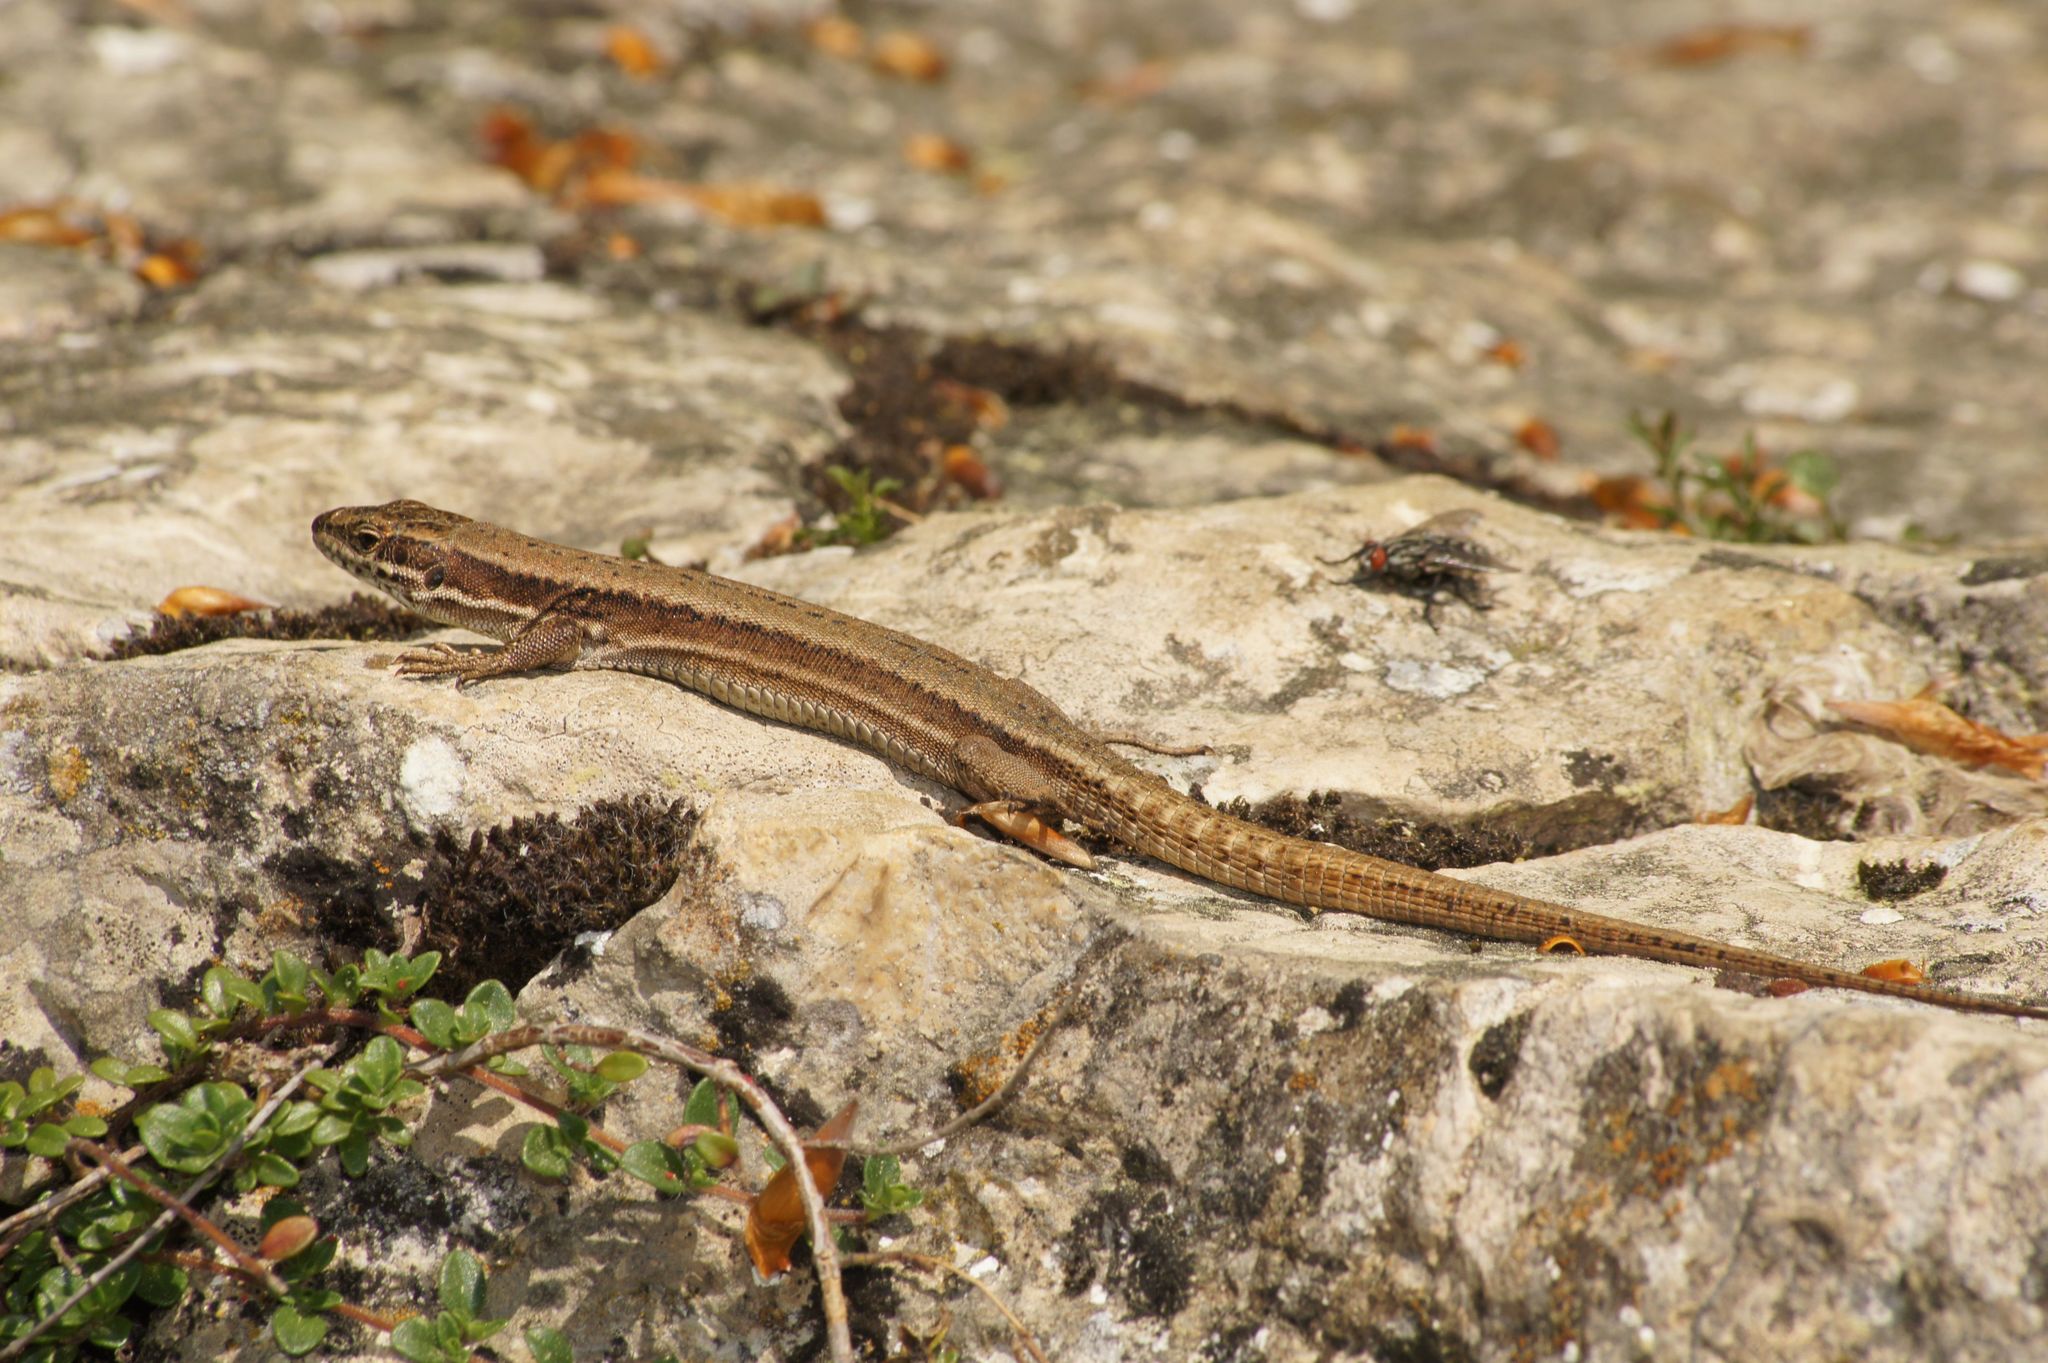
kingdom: Animalia
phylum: Chordata
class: Squamata
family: Lacertidae
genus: Podarcis
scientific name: Podarcis muralis
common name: Common wall lizard
